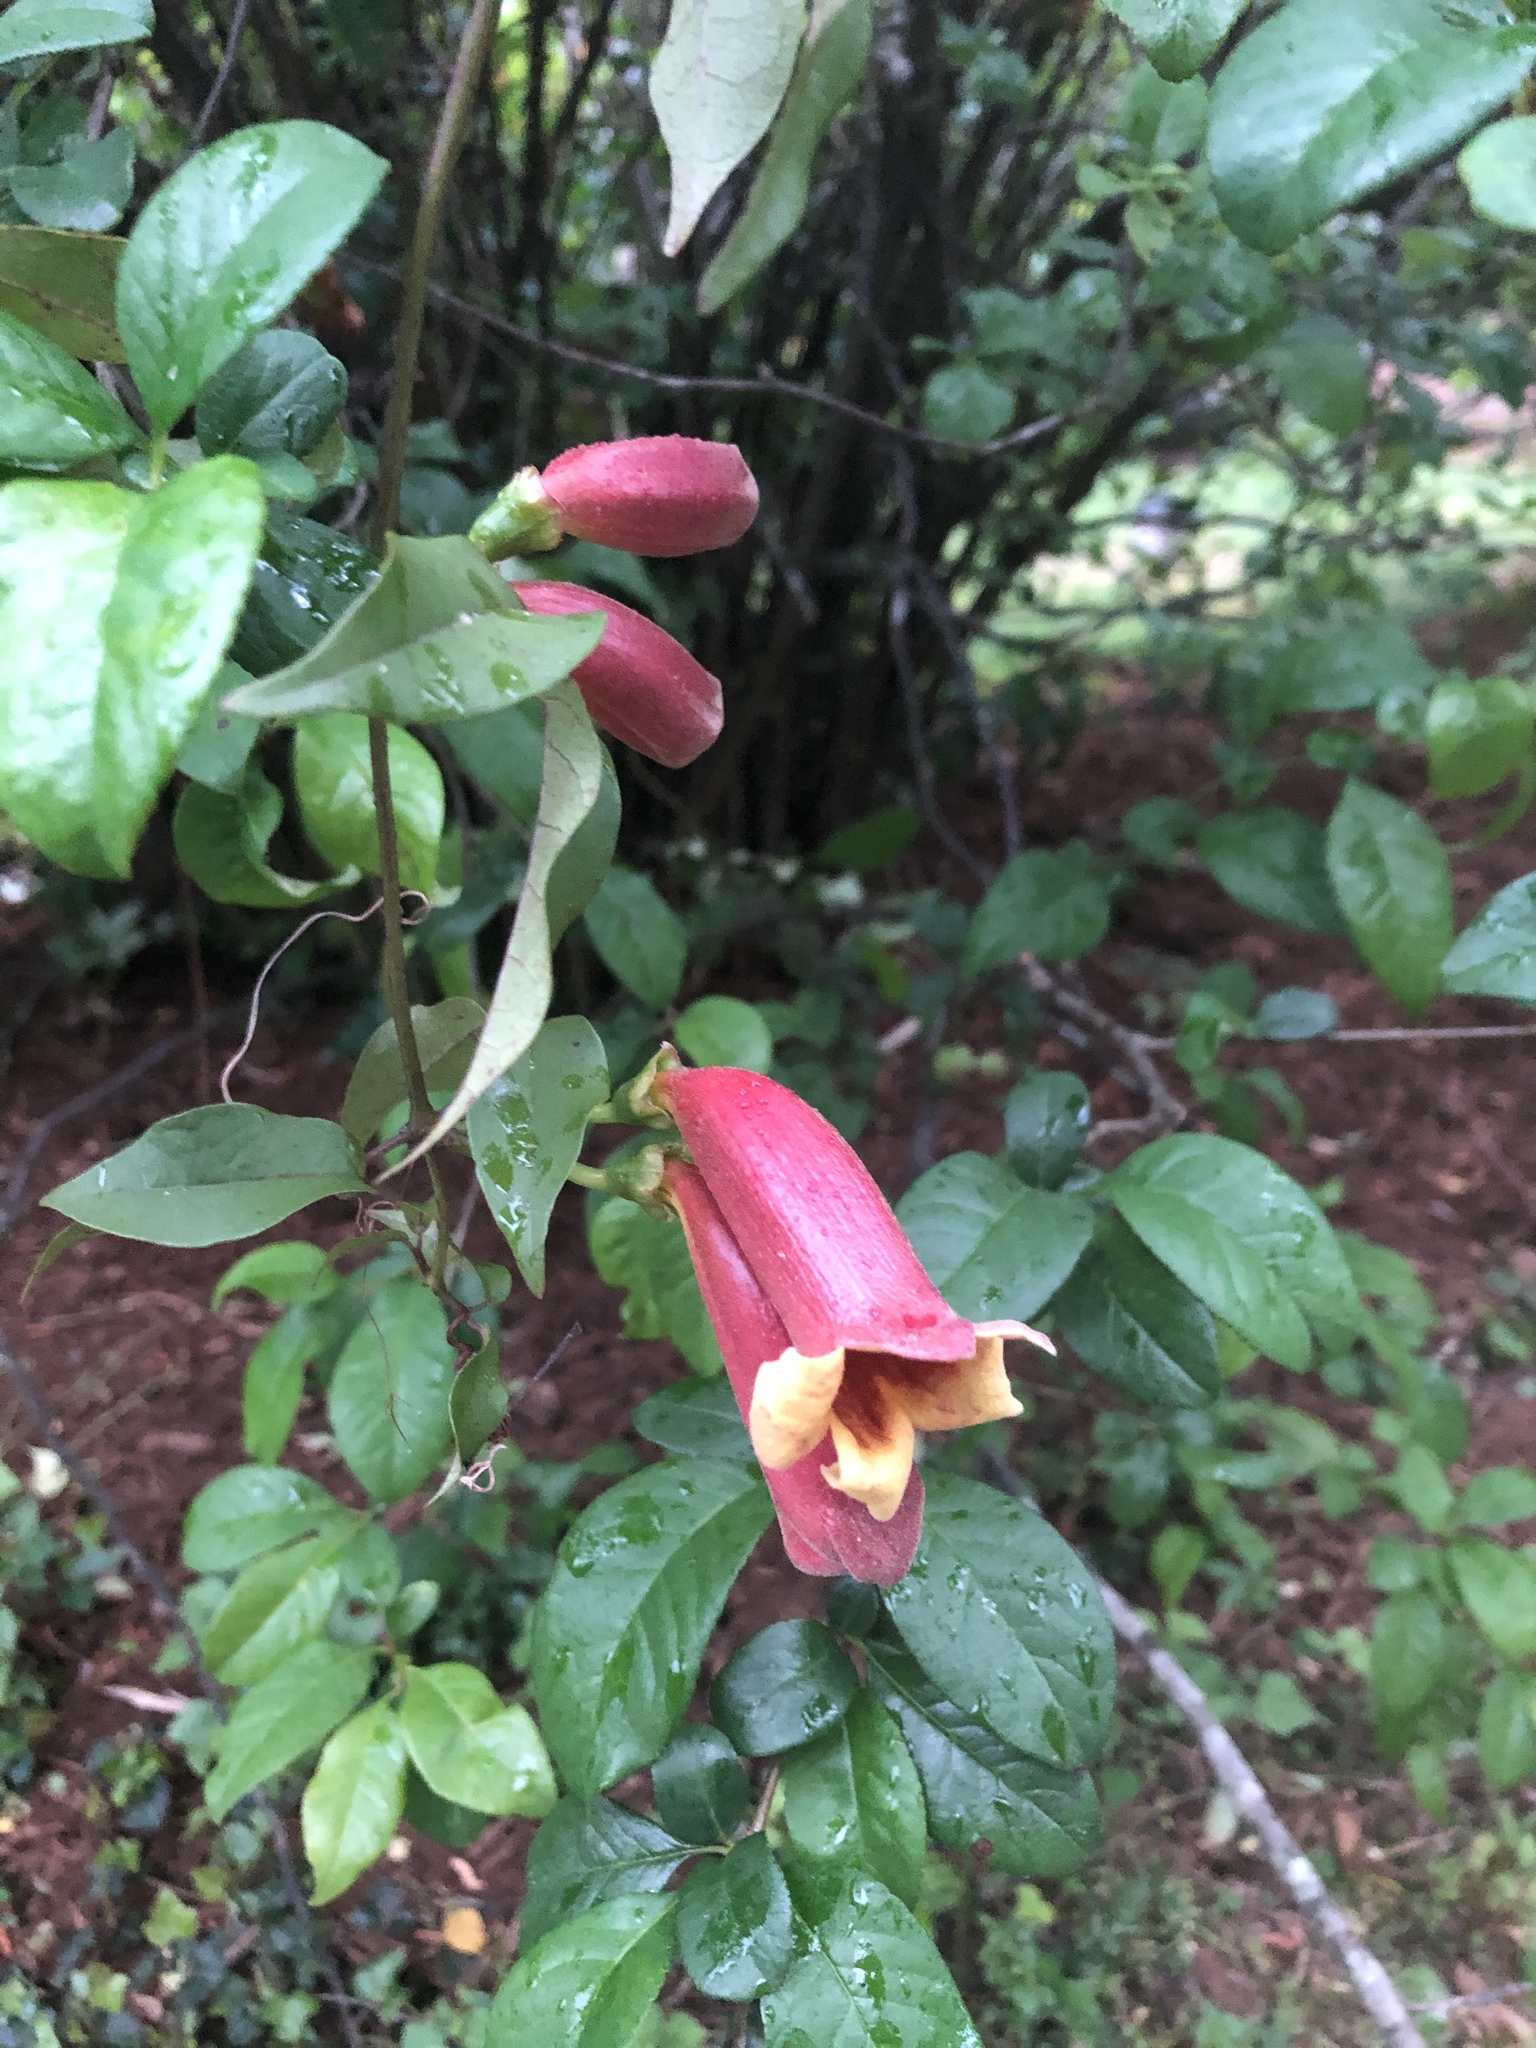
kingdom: Plantae
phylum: Tracheophyta
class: Magnoliopsida
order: Lamiales
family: Bignoniaceae
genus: Bignonia
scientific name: Bignonia capreolata
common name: Crossvine
